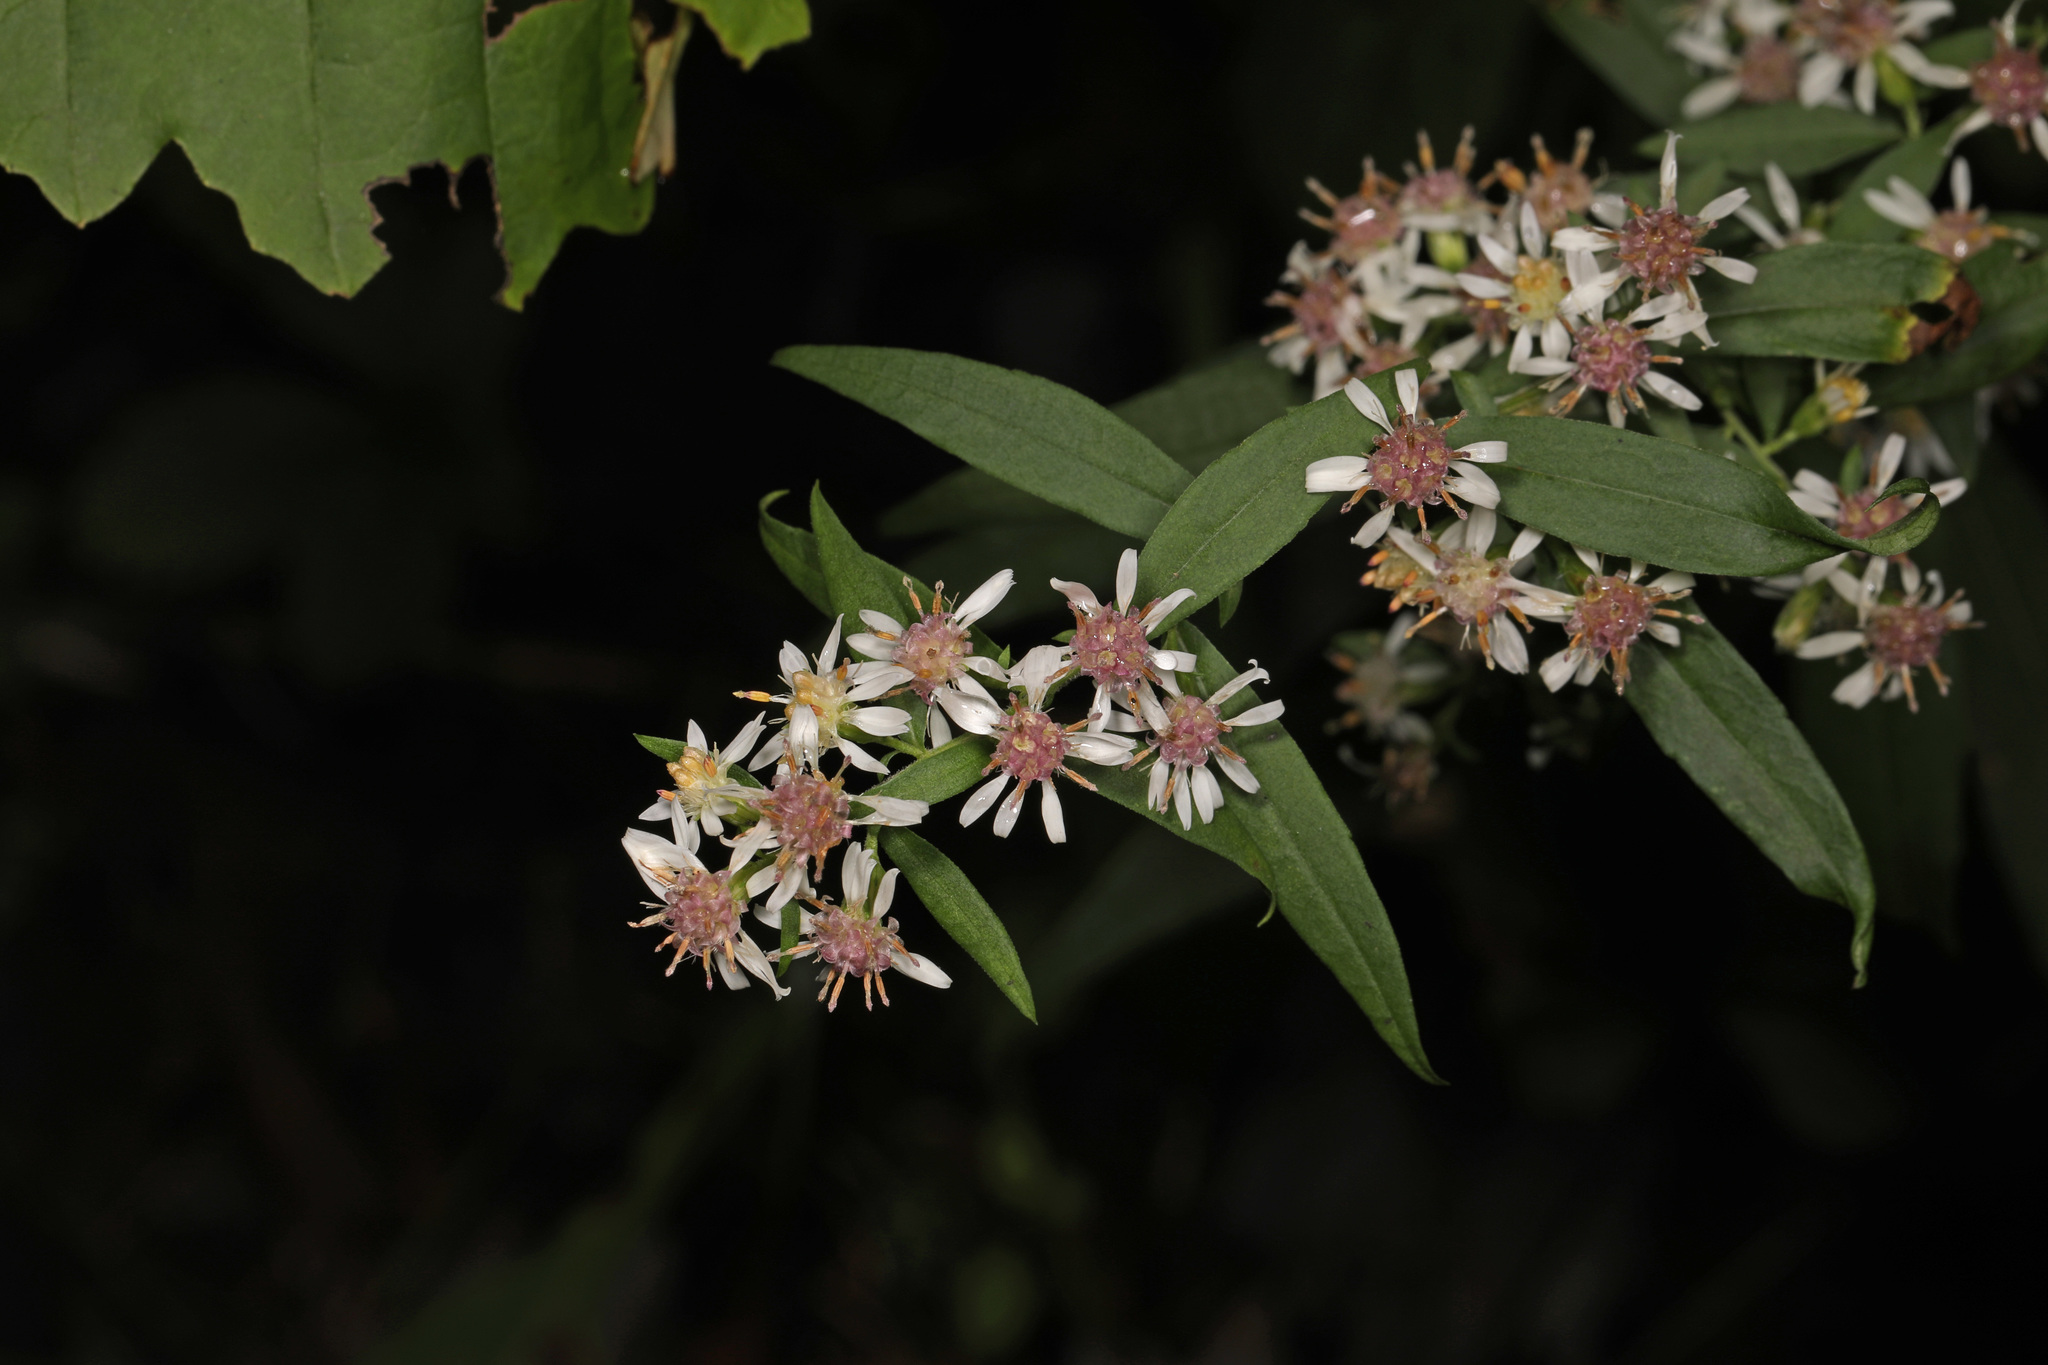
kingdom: Plantae
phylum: Tracheophyta
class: Magnoliopsida
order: Asterales
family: Asteraceae
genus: Symphyotrichum
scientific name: Symphyotrichum lateriflorum
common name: Calico aster
